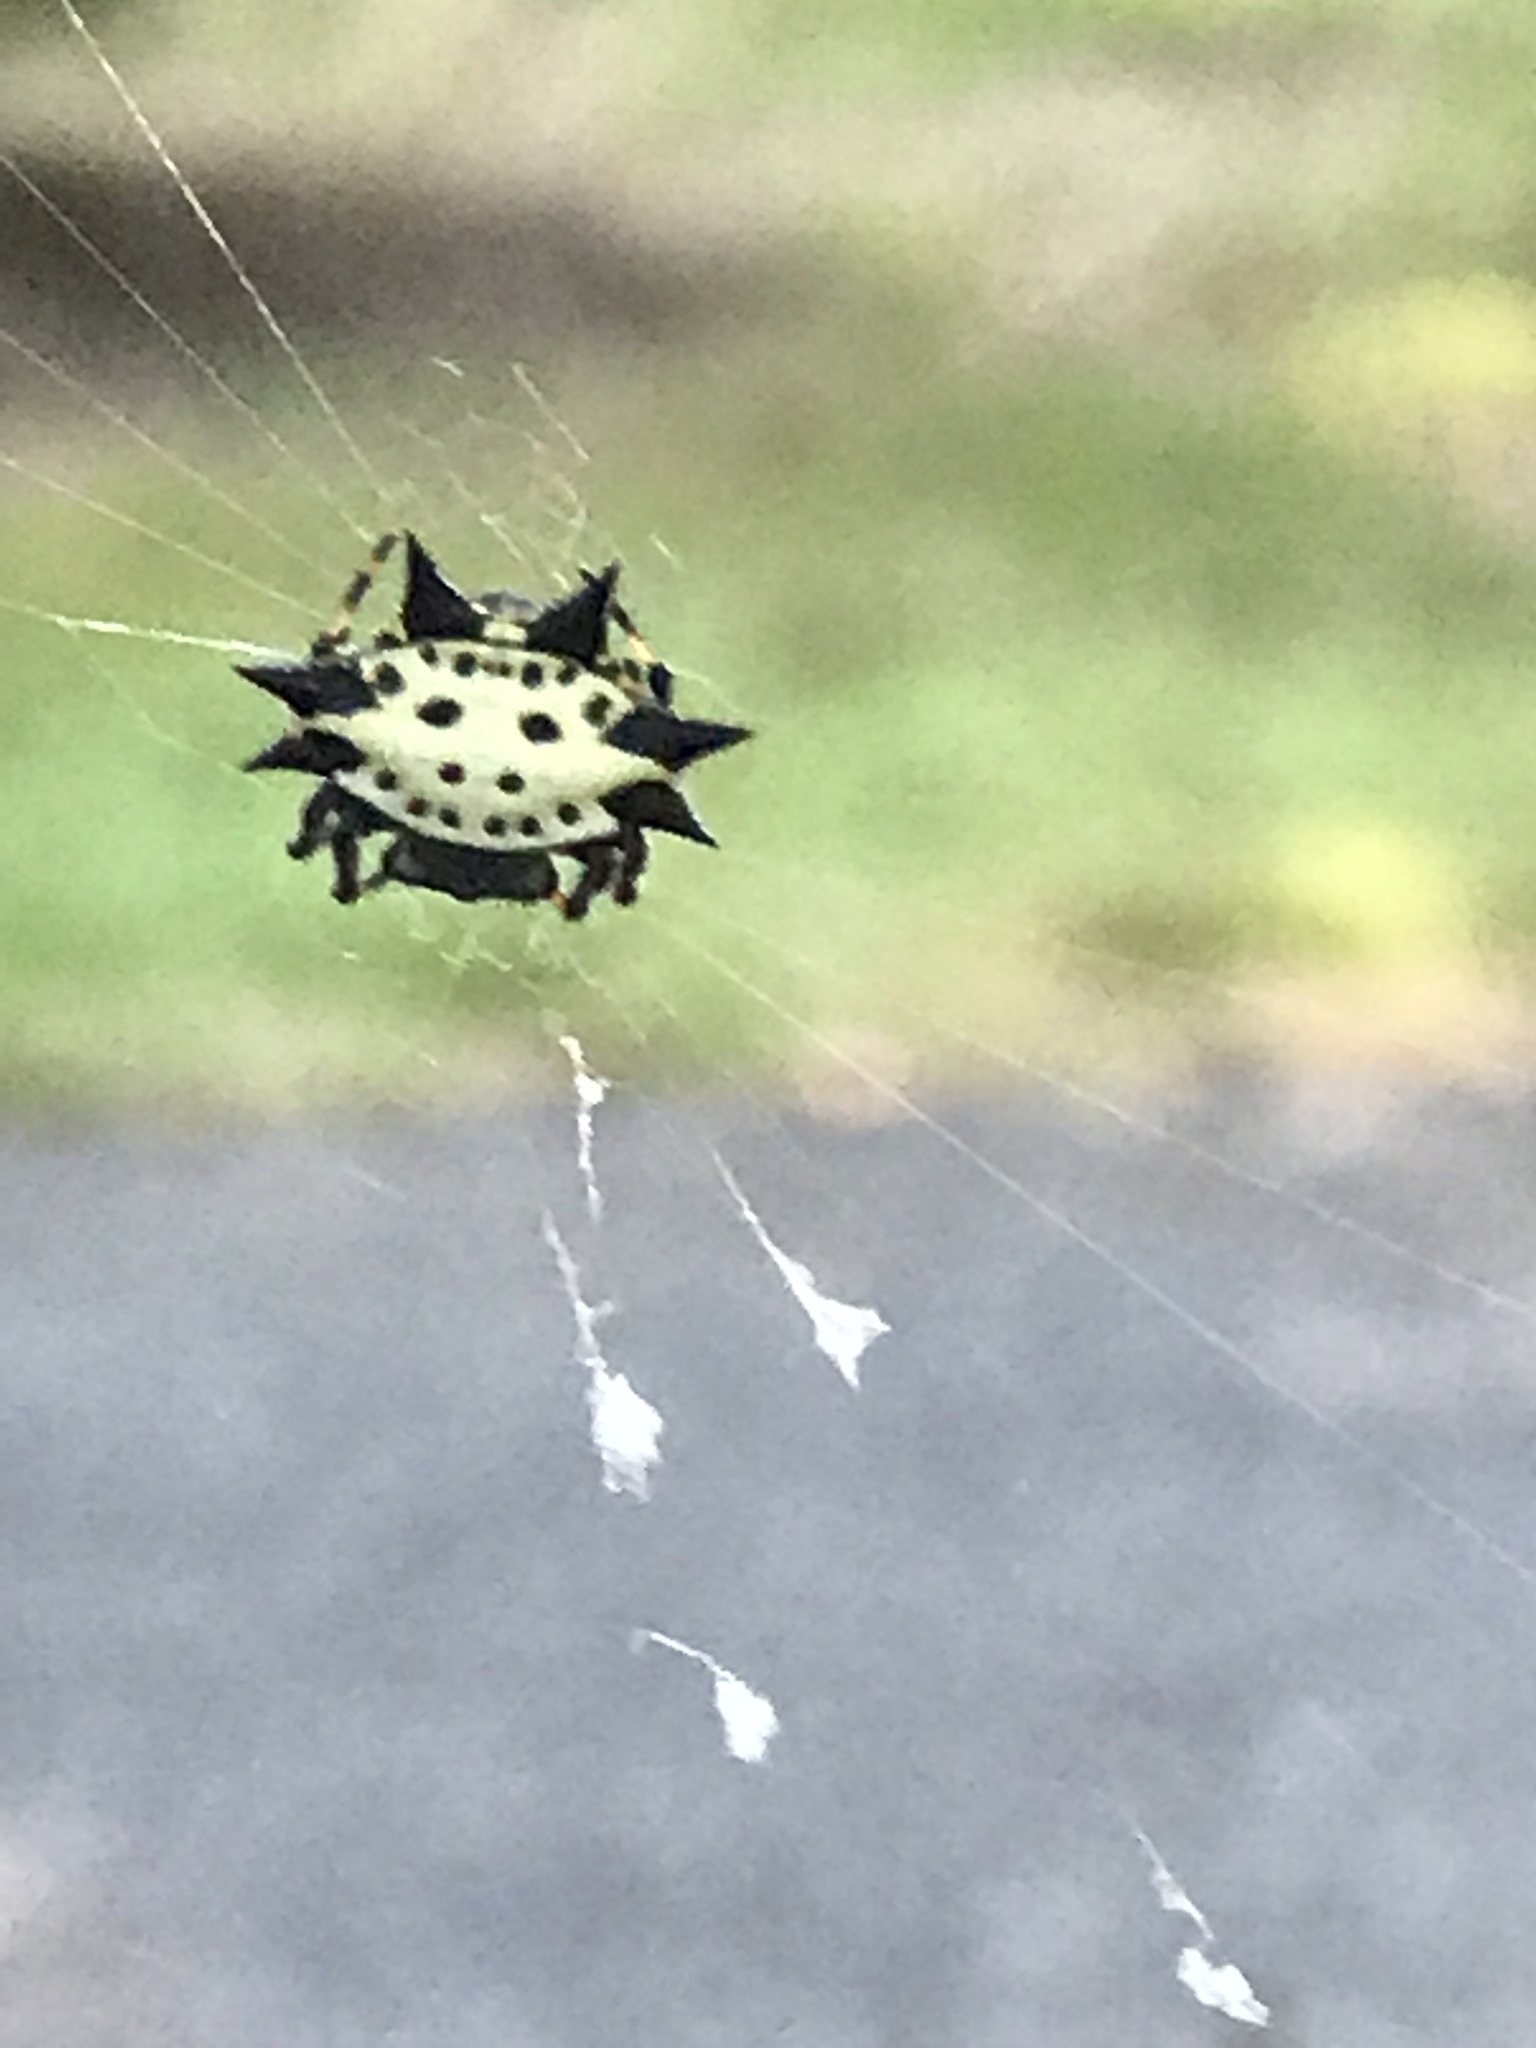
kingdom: Animalia
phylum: Arthropoda
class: Arachnida
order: Araneae
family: Araneidae
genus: Gasteracantha
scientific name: Gasteracantha cancriformis
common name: Orb weavers
